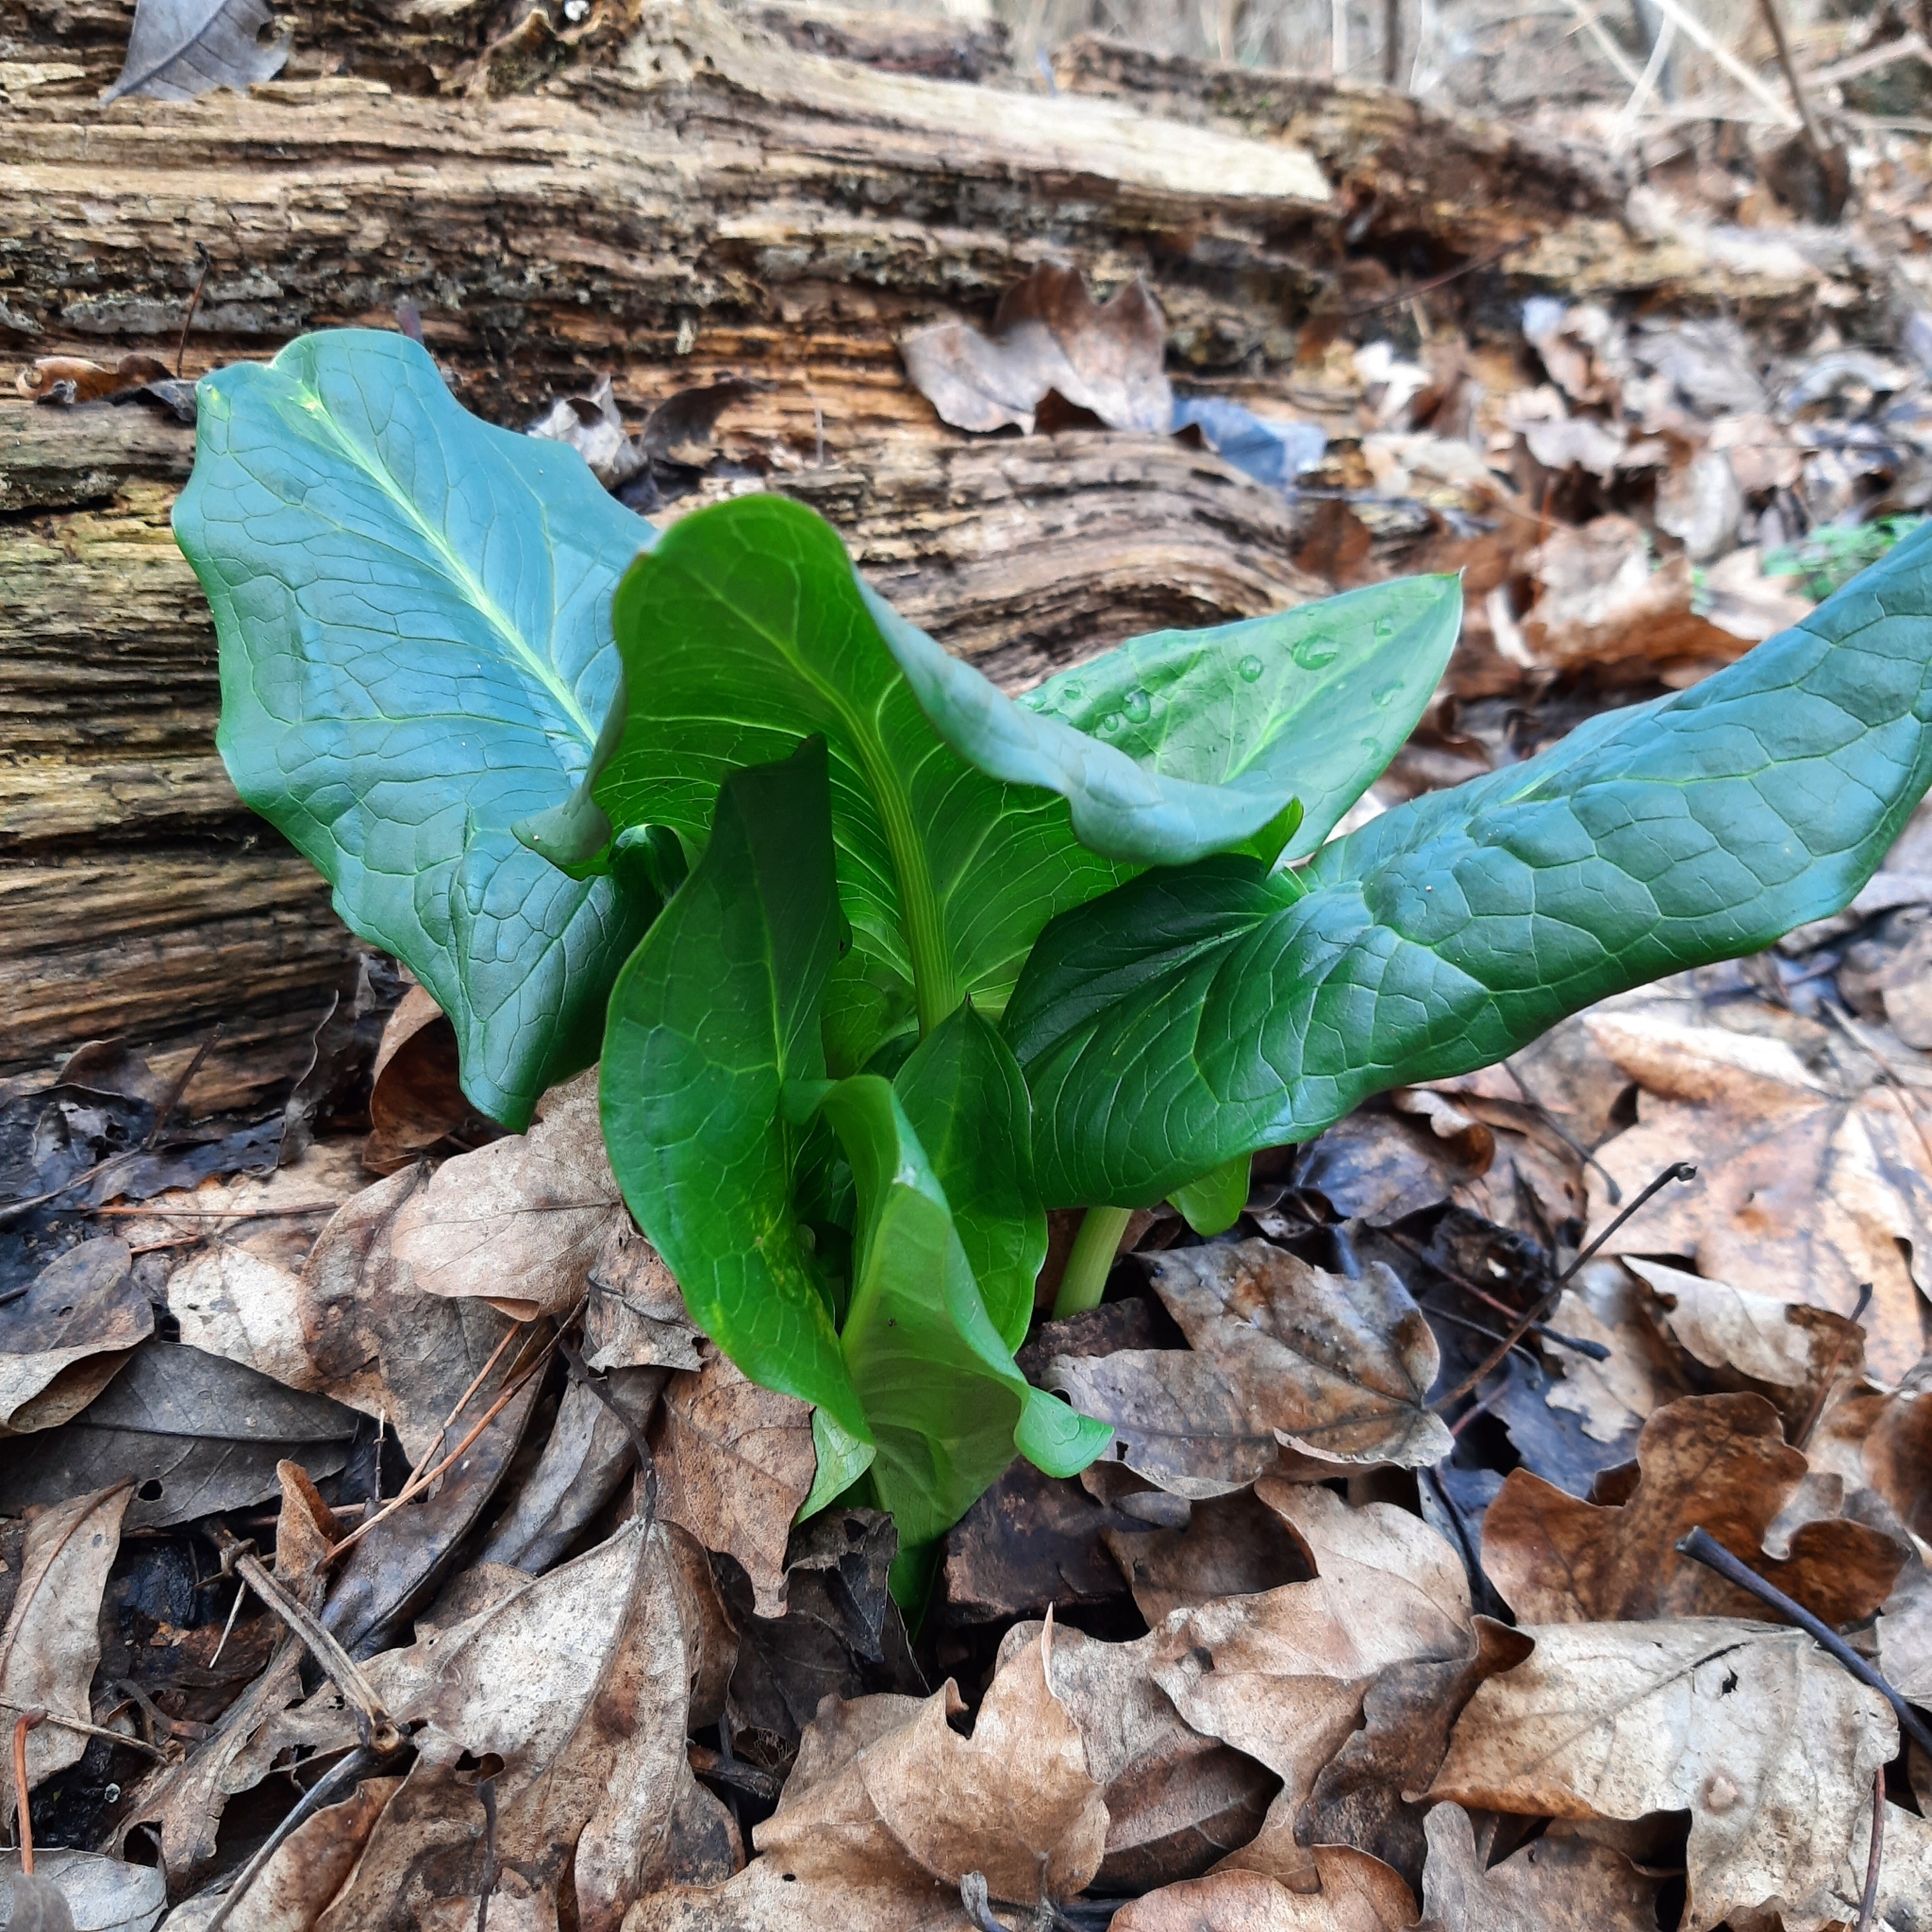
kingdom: Plantae
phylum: Tracheophyta
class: Liliopsida
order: Alismatales
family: Araceae
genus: Arum
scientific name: Arum cylindraceum
